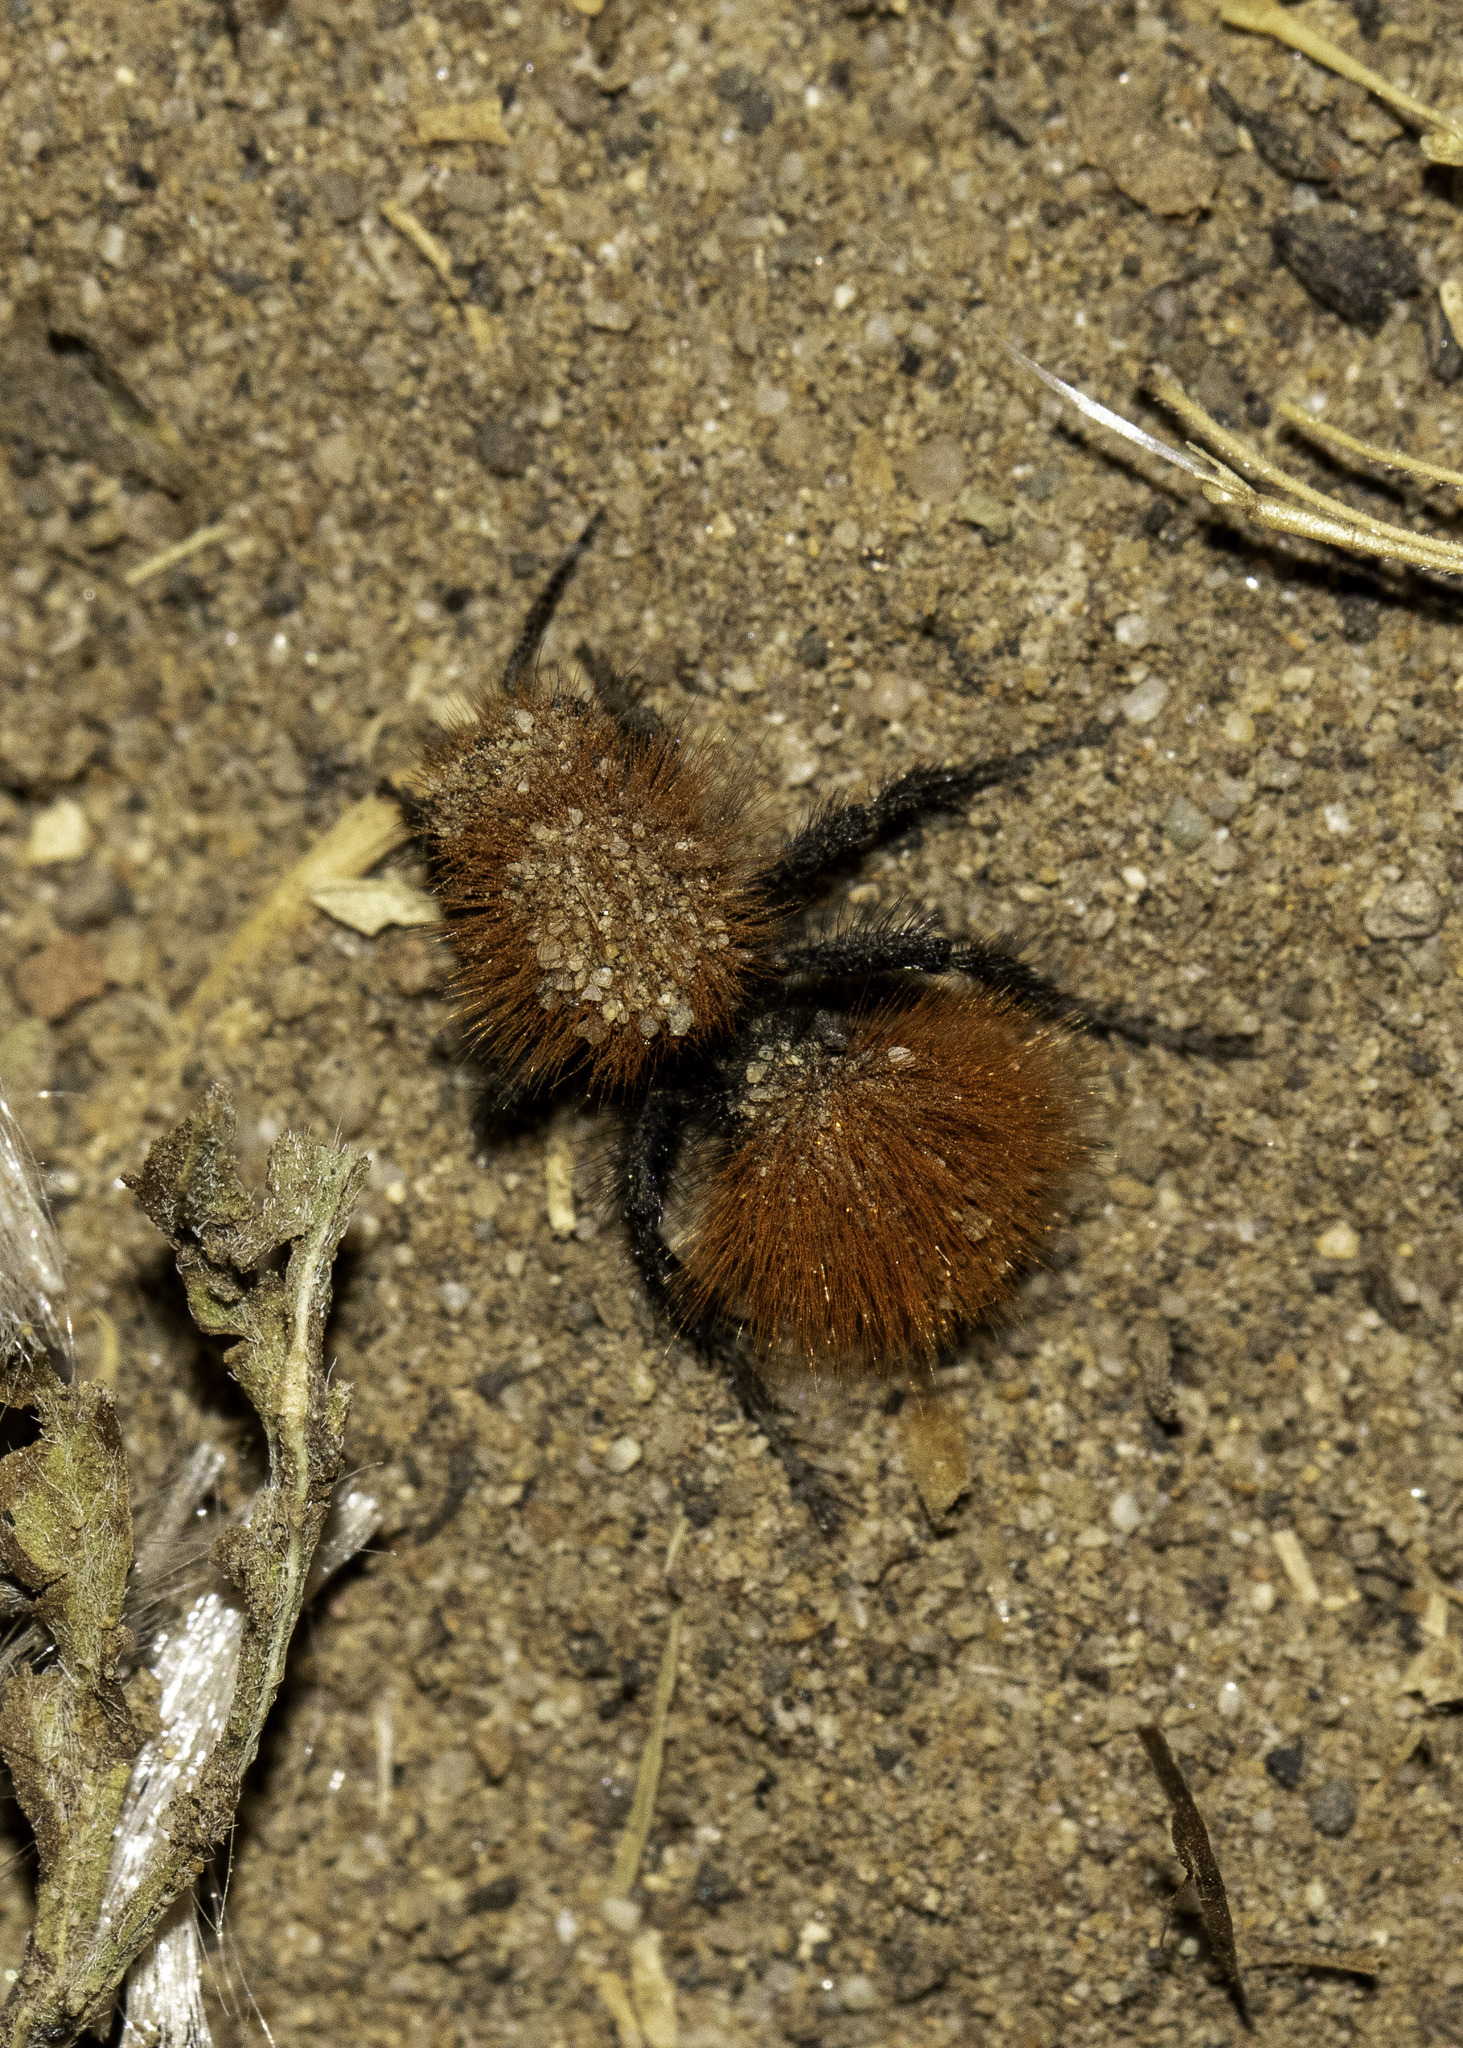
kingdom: Animalia
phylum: Arthropoda
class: Insecta
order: Hymenoptera
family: Mutillidae
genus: Dasymutilla
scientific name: Dasymutilla
